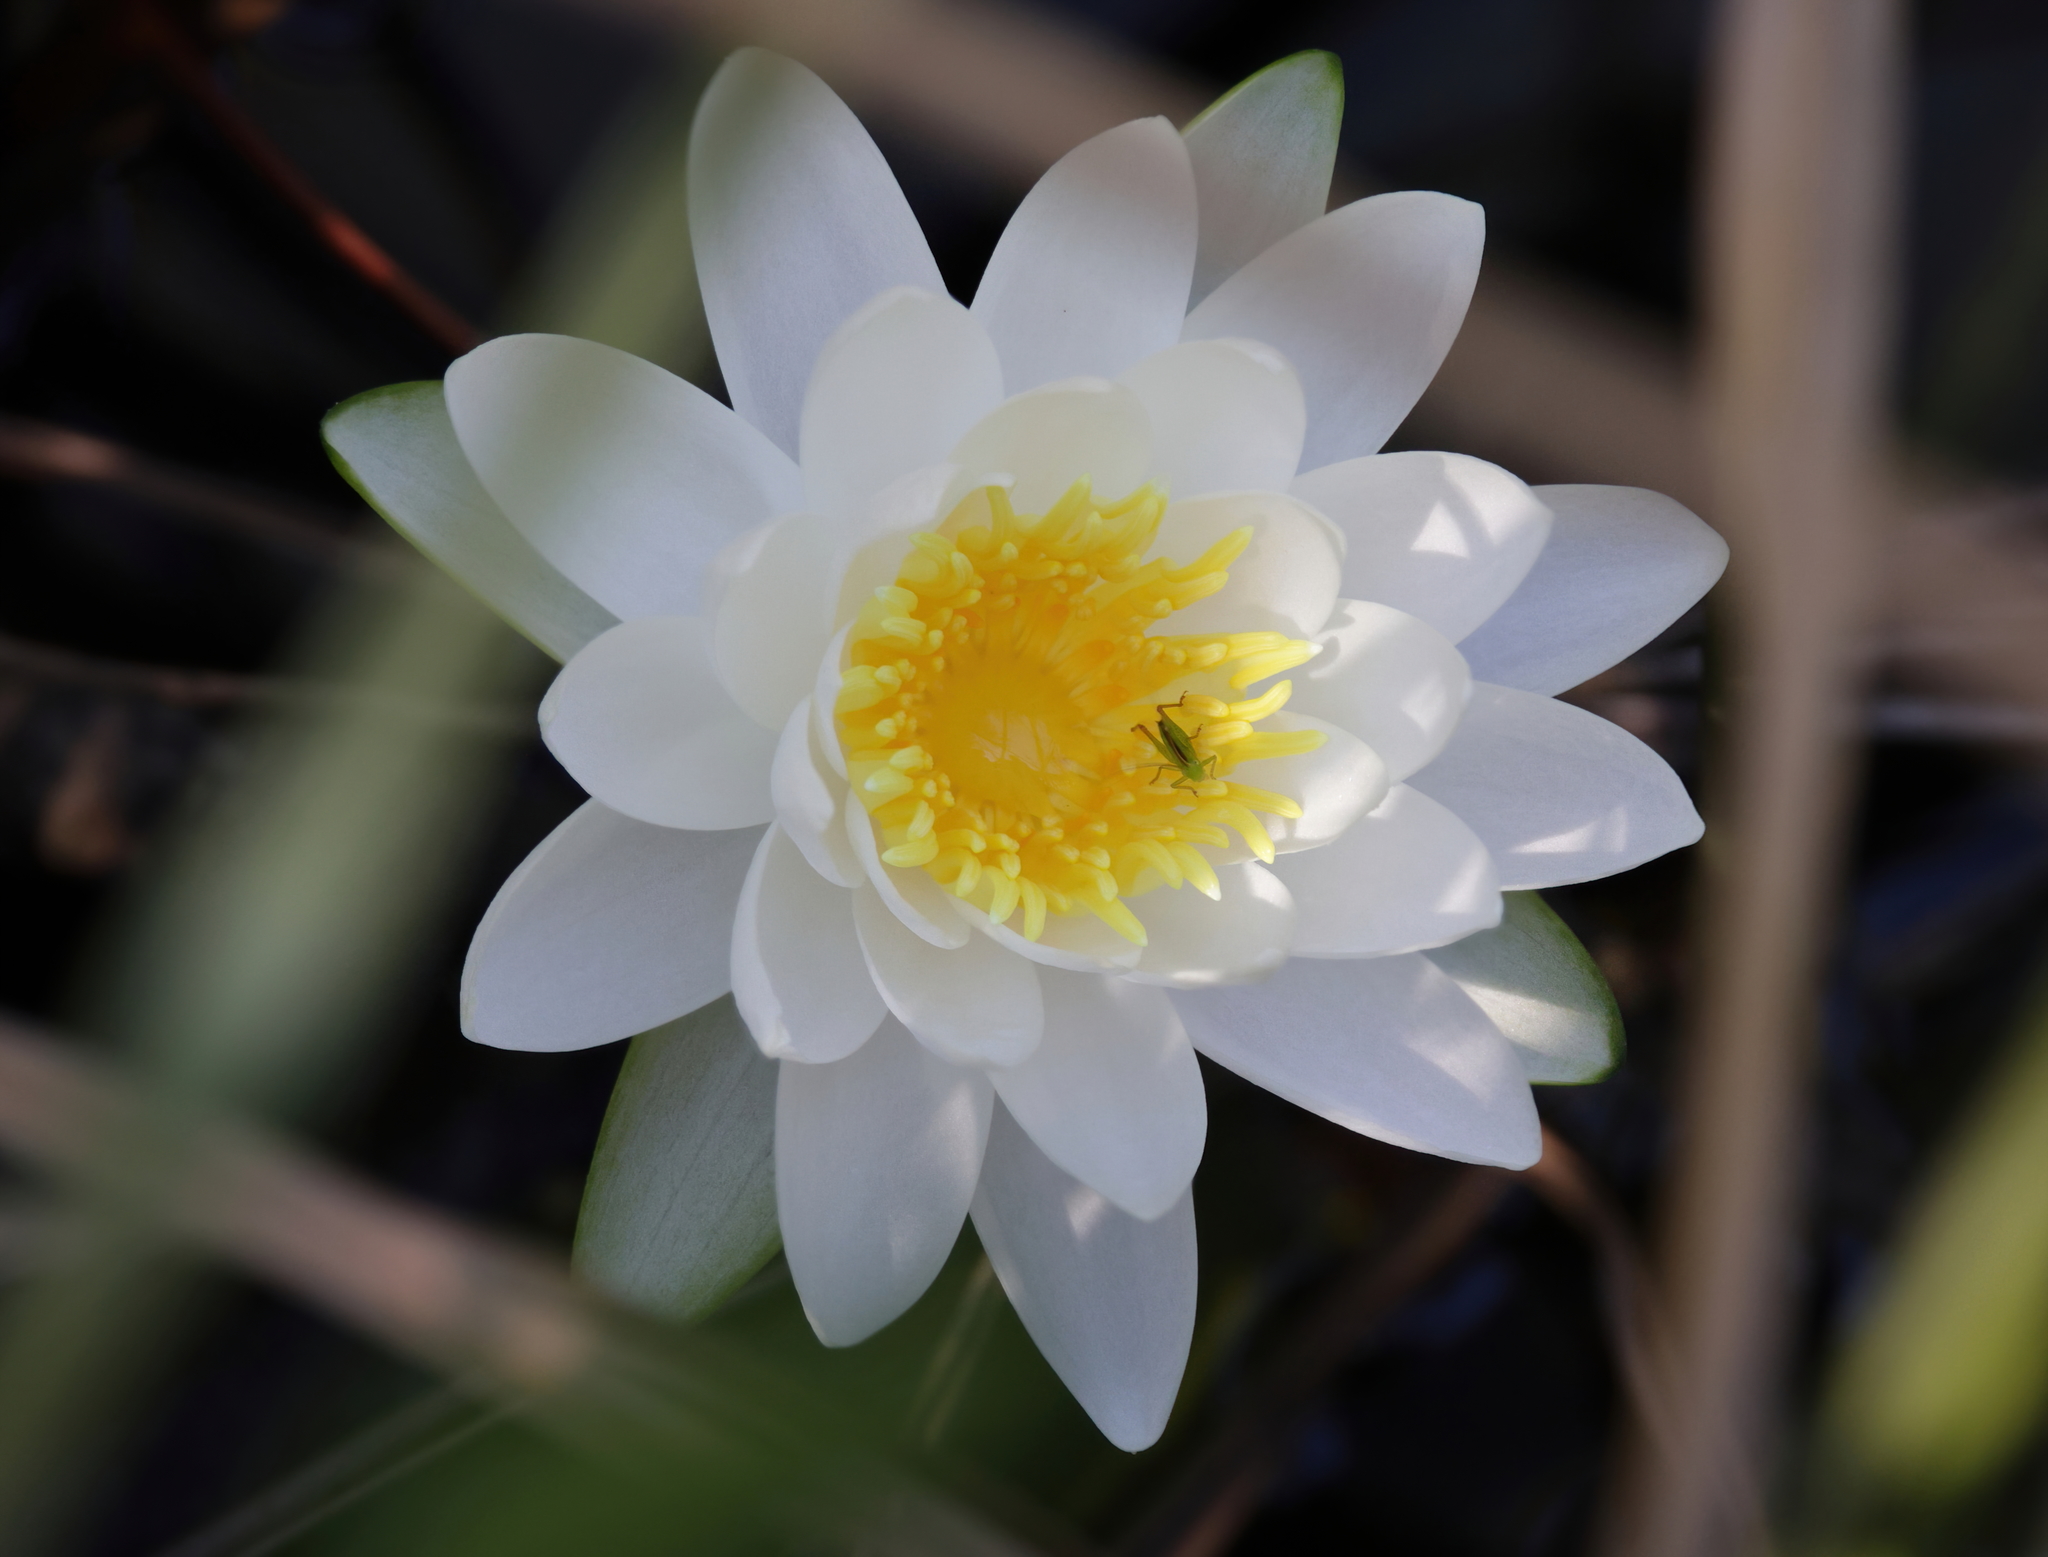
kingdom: Plantae
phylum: Tracheophyta
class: Magnoliopsida
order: Nymphaeales
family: Nymphaeaceae
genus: Nymphaea
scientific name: Nymphaea odorata
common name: Fragrant water-lily
